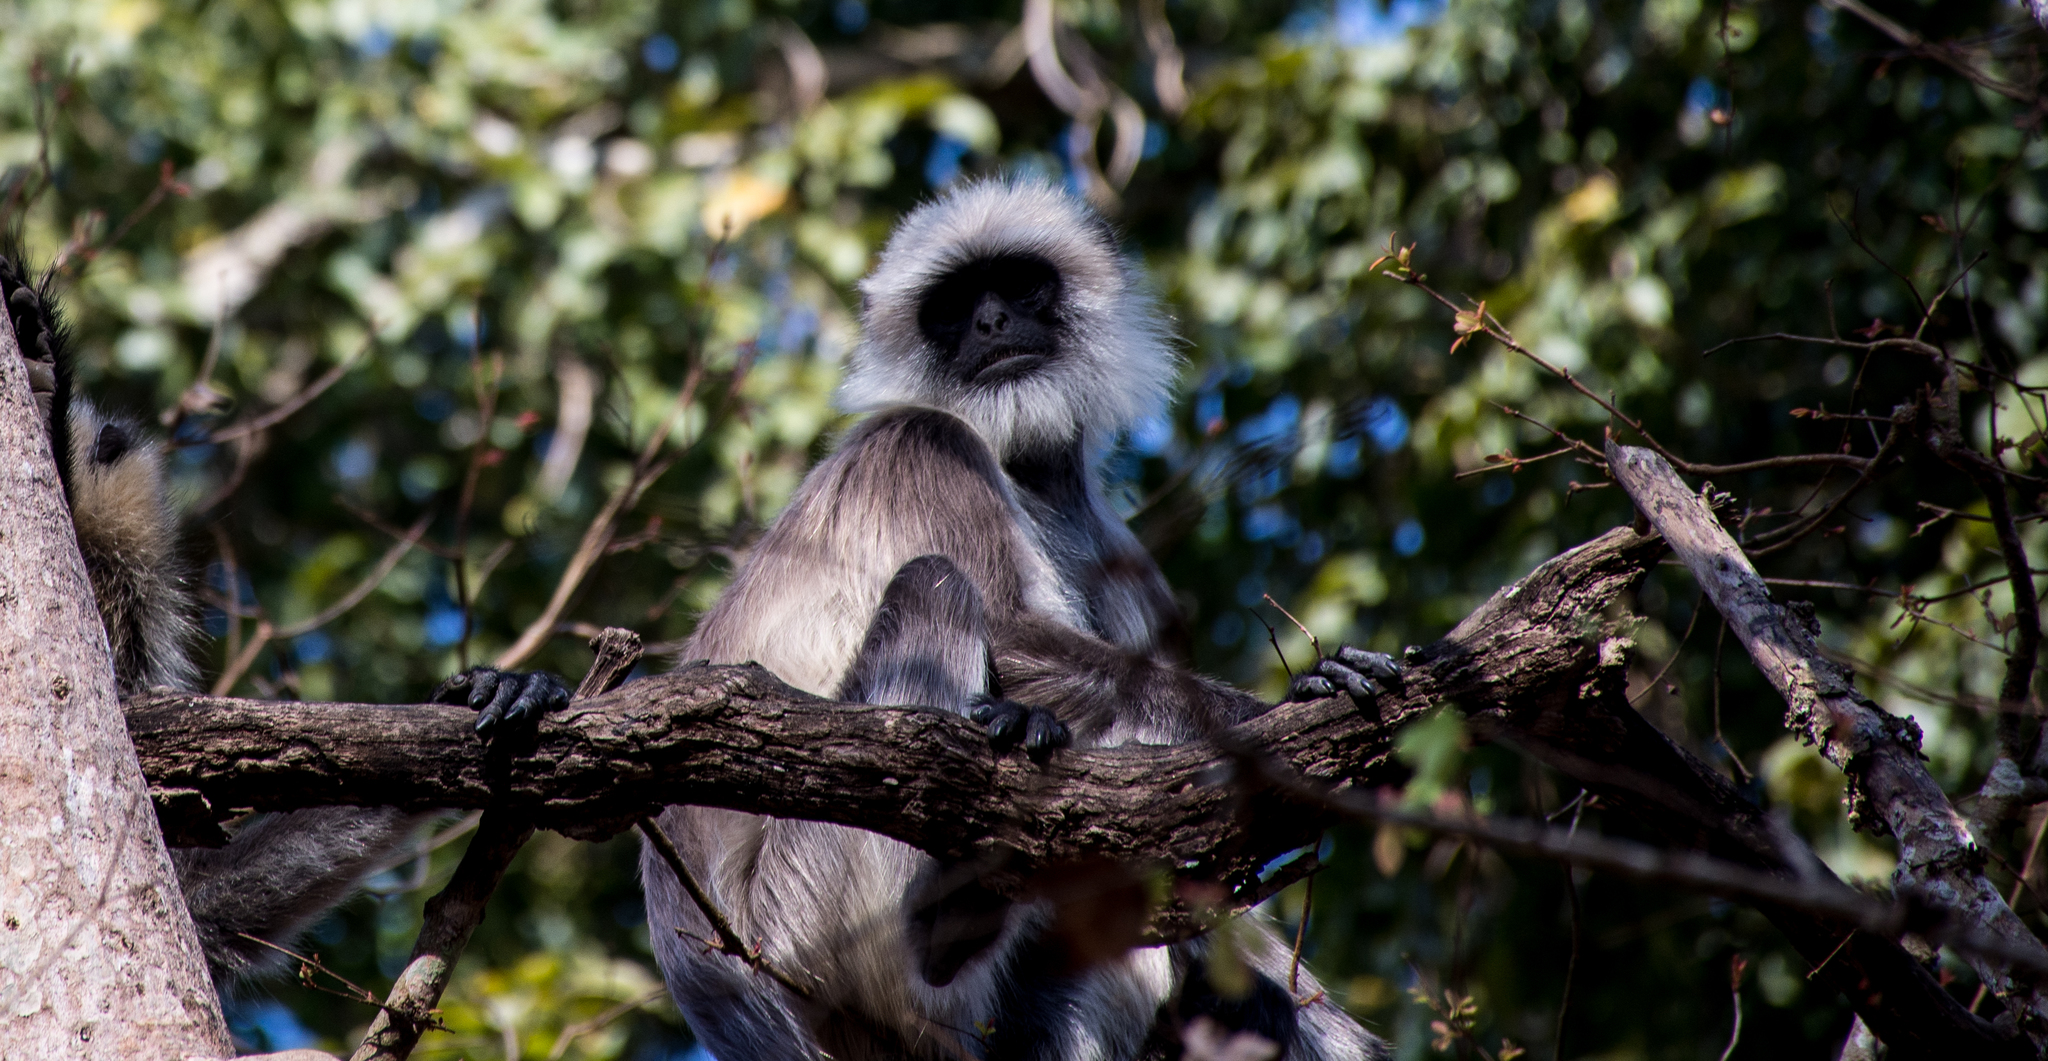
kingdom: Animalia
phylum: Chordata
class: Mammalia
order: Primates
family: Cercopithecidae
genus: Semnopithecus
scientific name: Semnopithecus hypoleucos
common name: Black-footed gray langur
